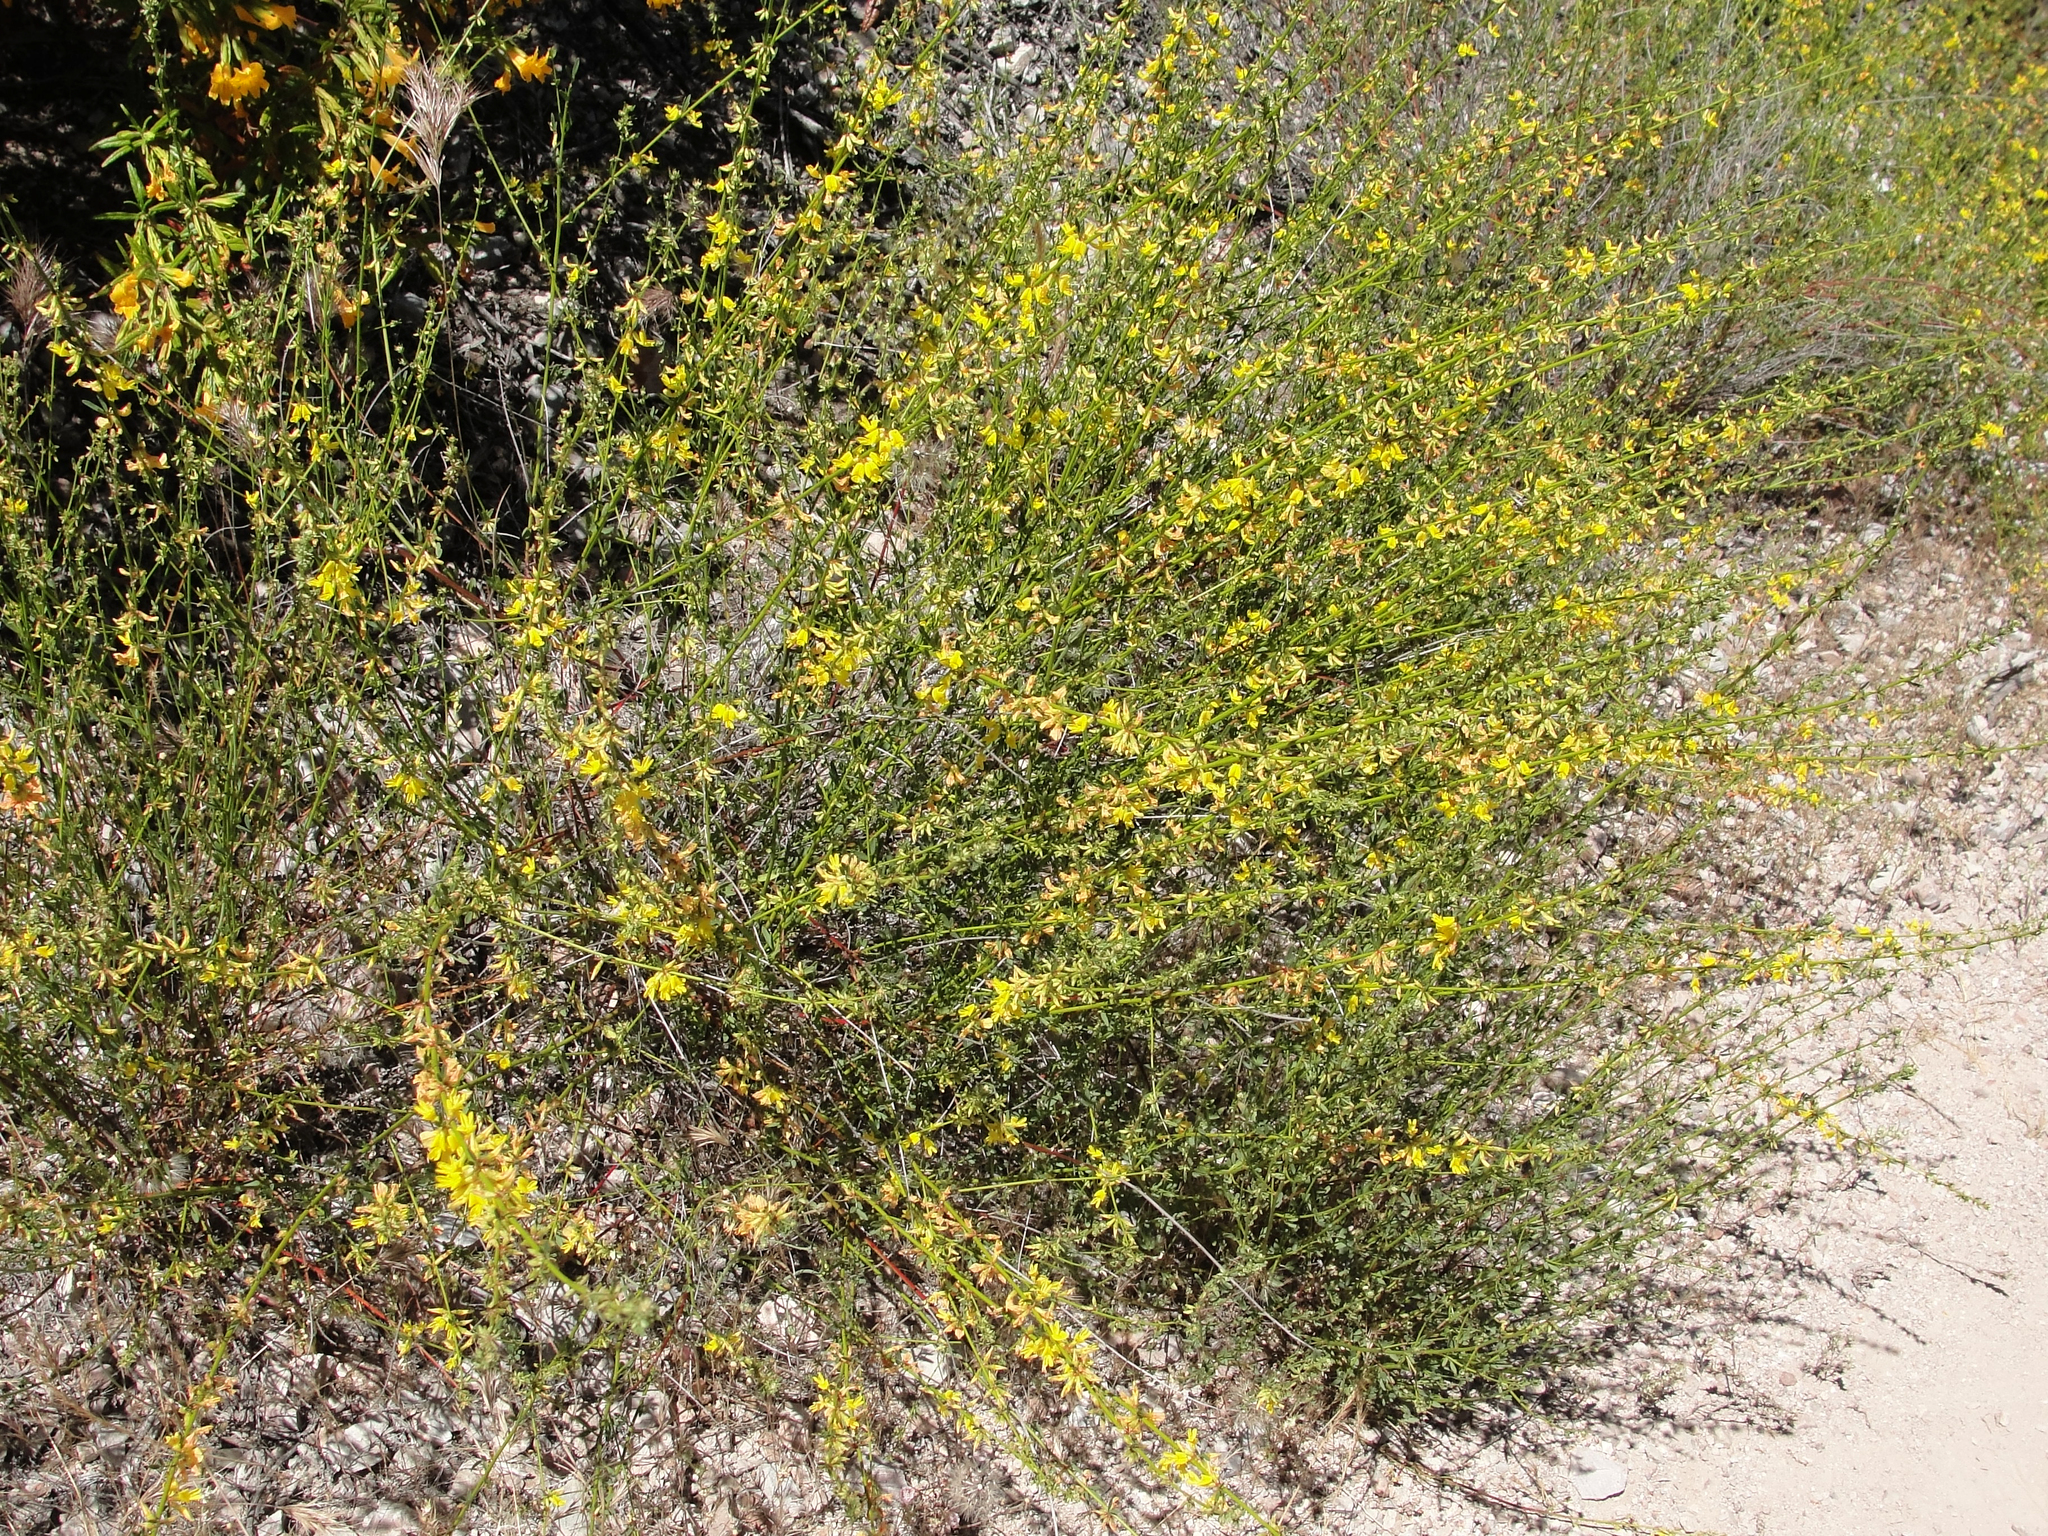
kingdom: Plantae
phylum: Tracheophyta
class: Magnoliopsida
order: Fabales
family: Fabaceae
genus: Acmispon
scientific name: Acmispon glaber
